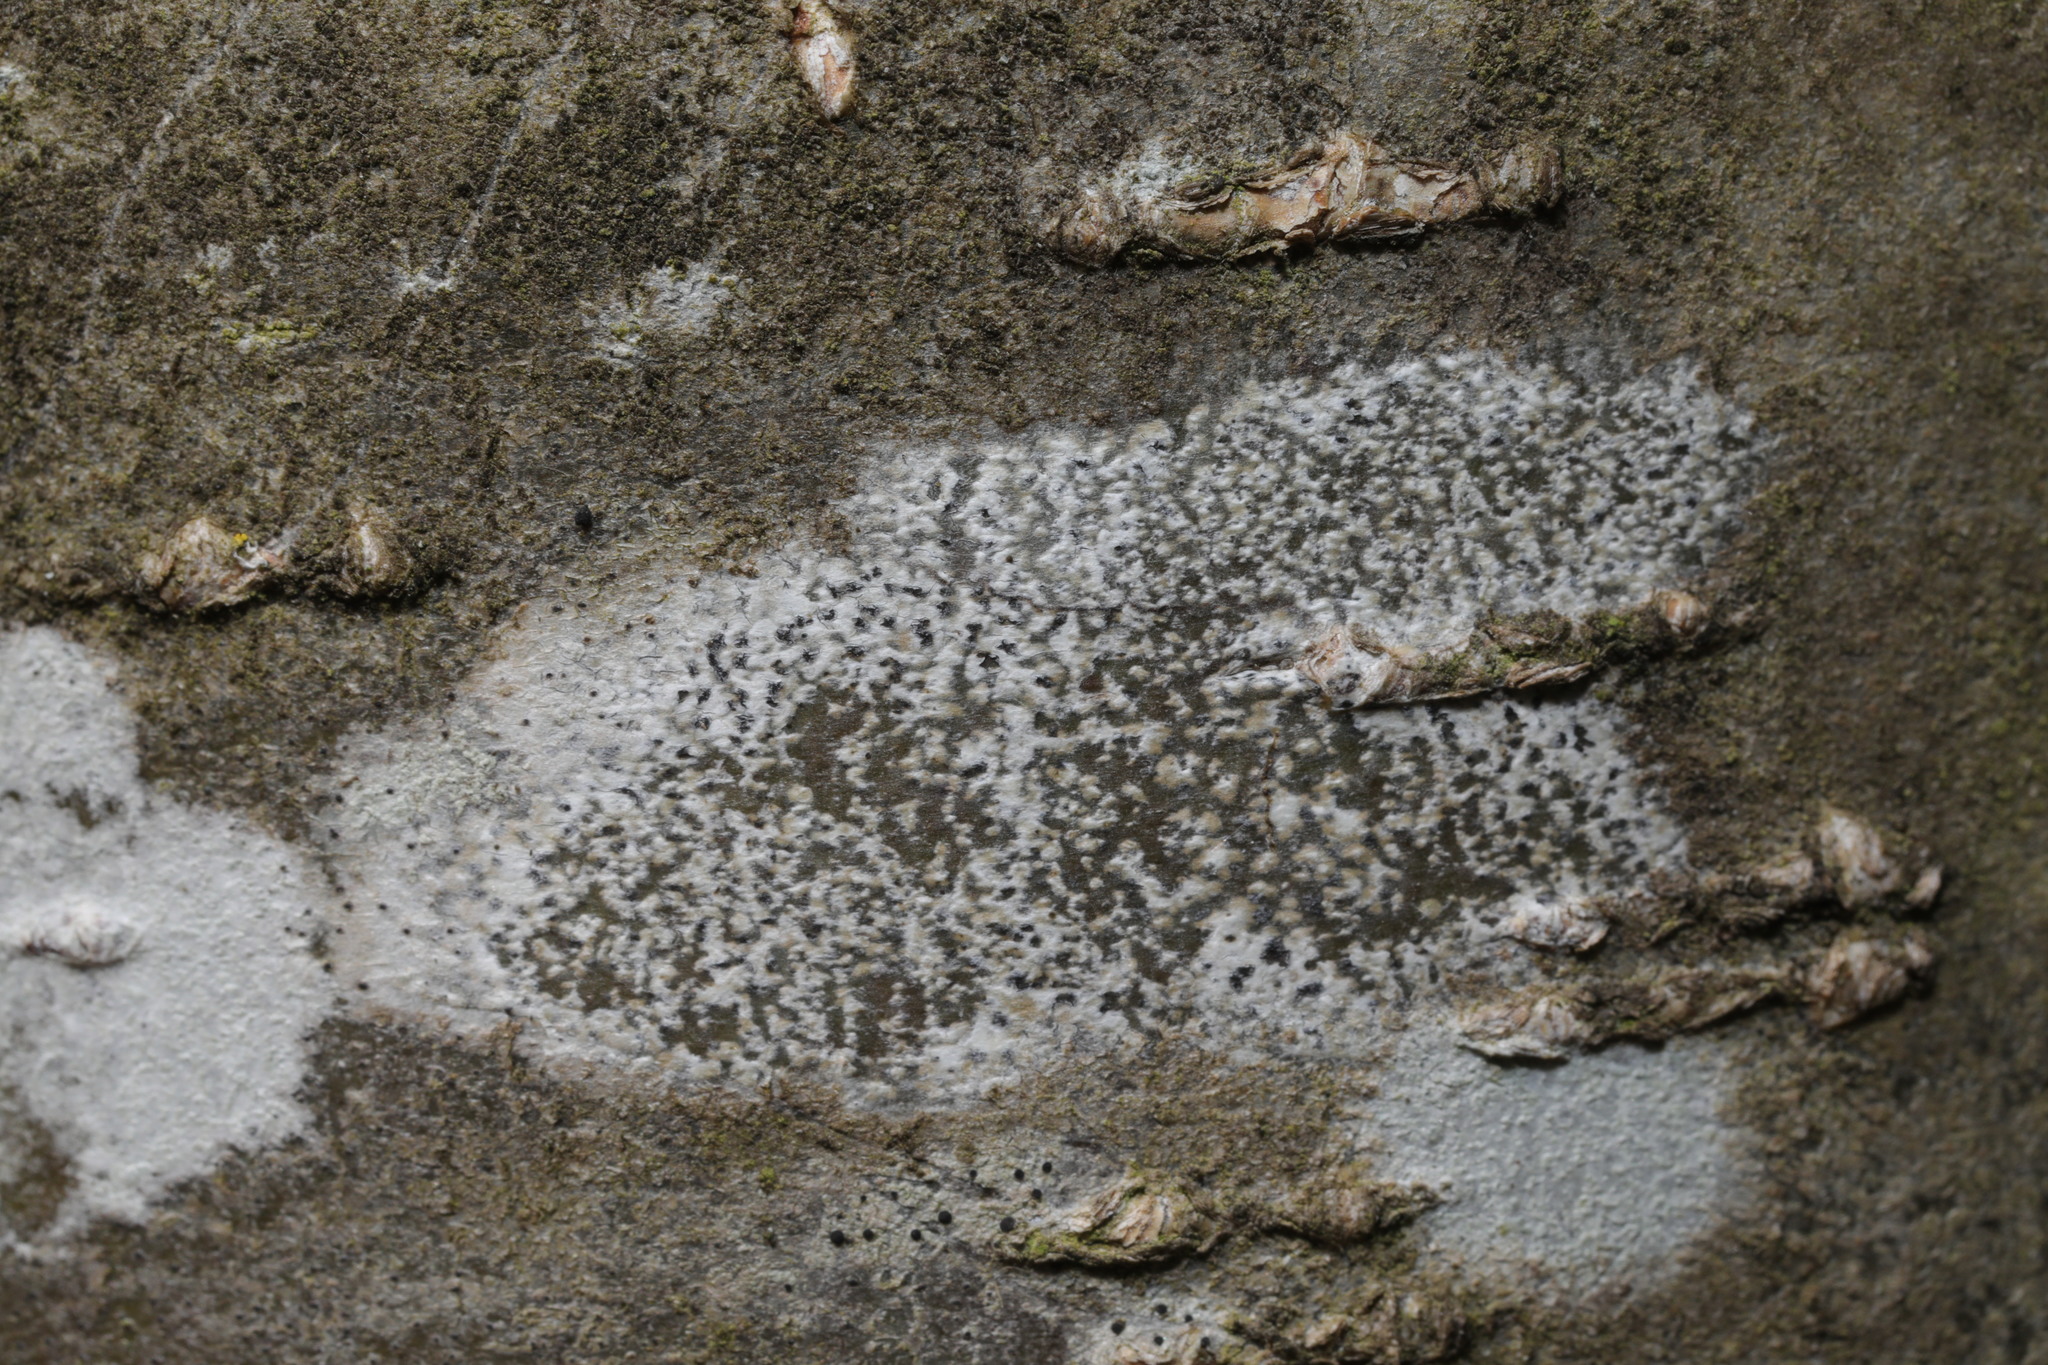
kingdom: Fungi
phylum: Ascomycota
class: Lecanoromycetes
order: Lecanorales
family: Lecanoraceae
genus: Lecidella
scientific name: Lecidella elaeochroma
